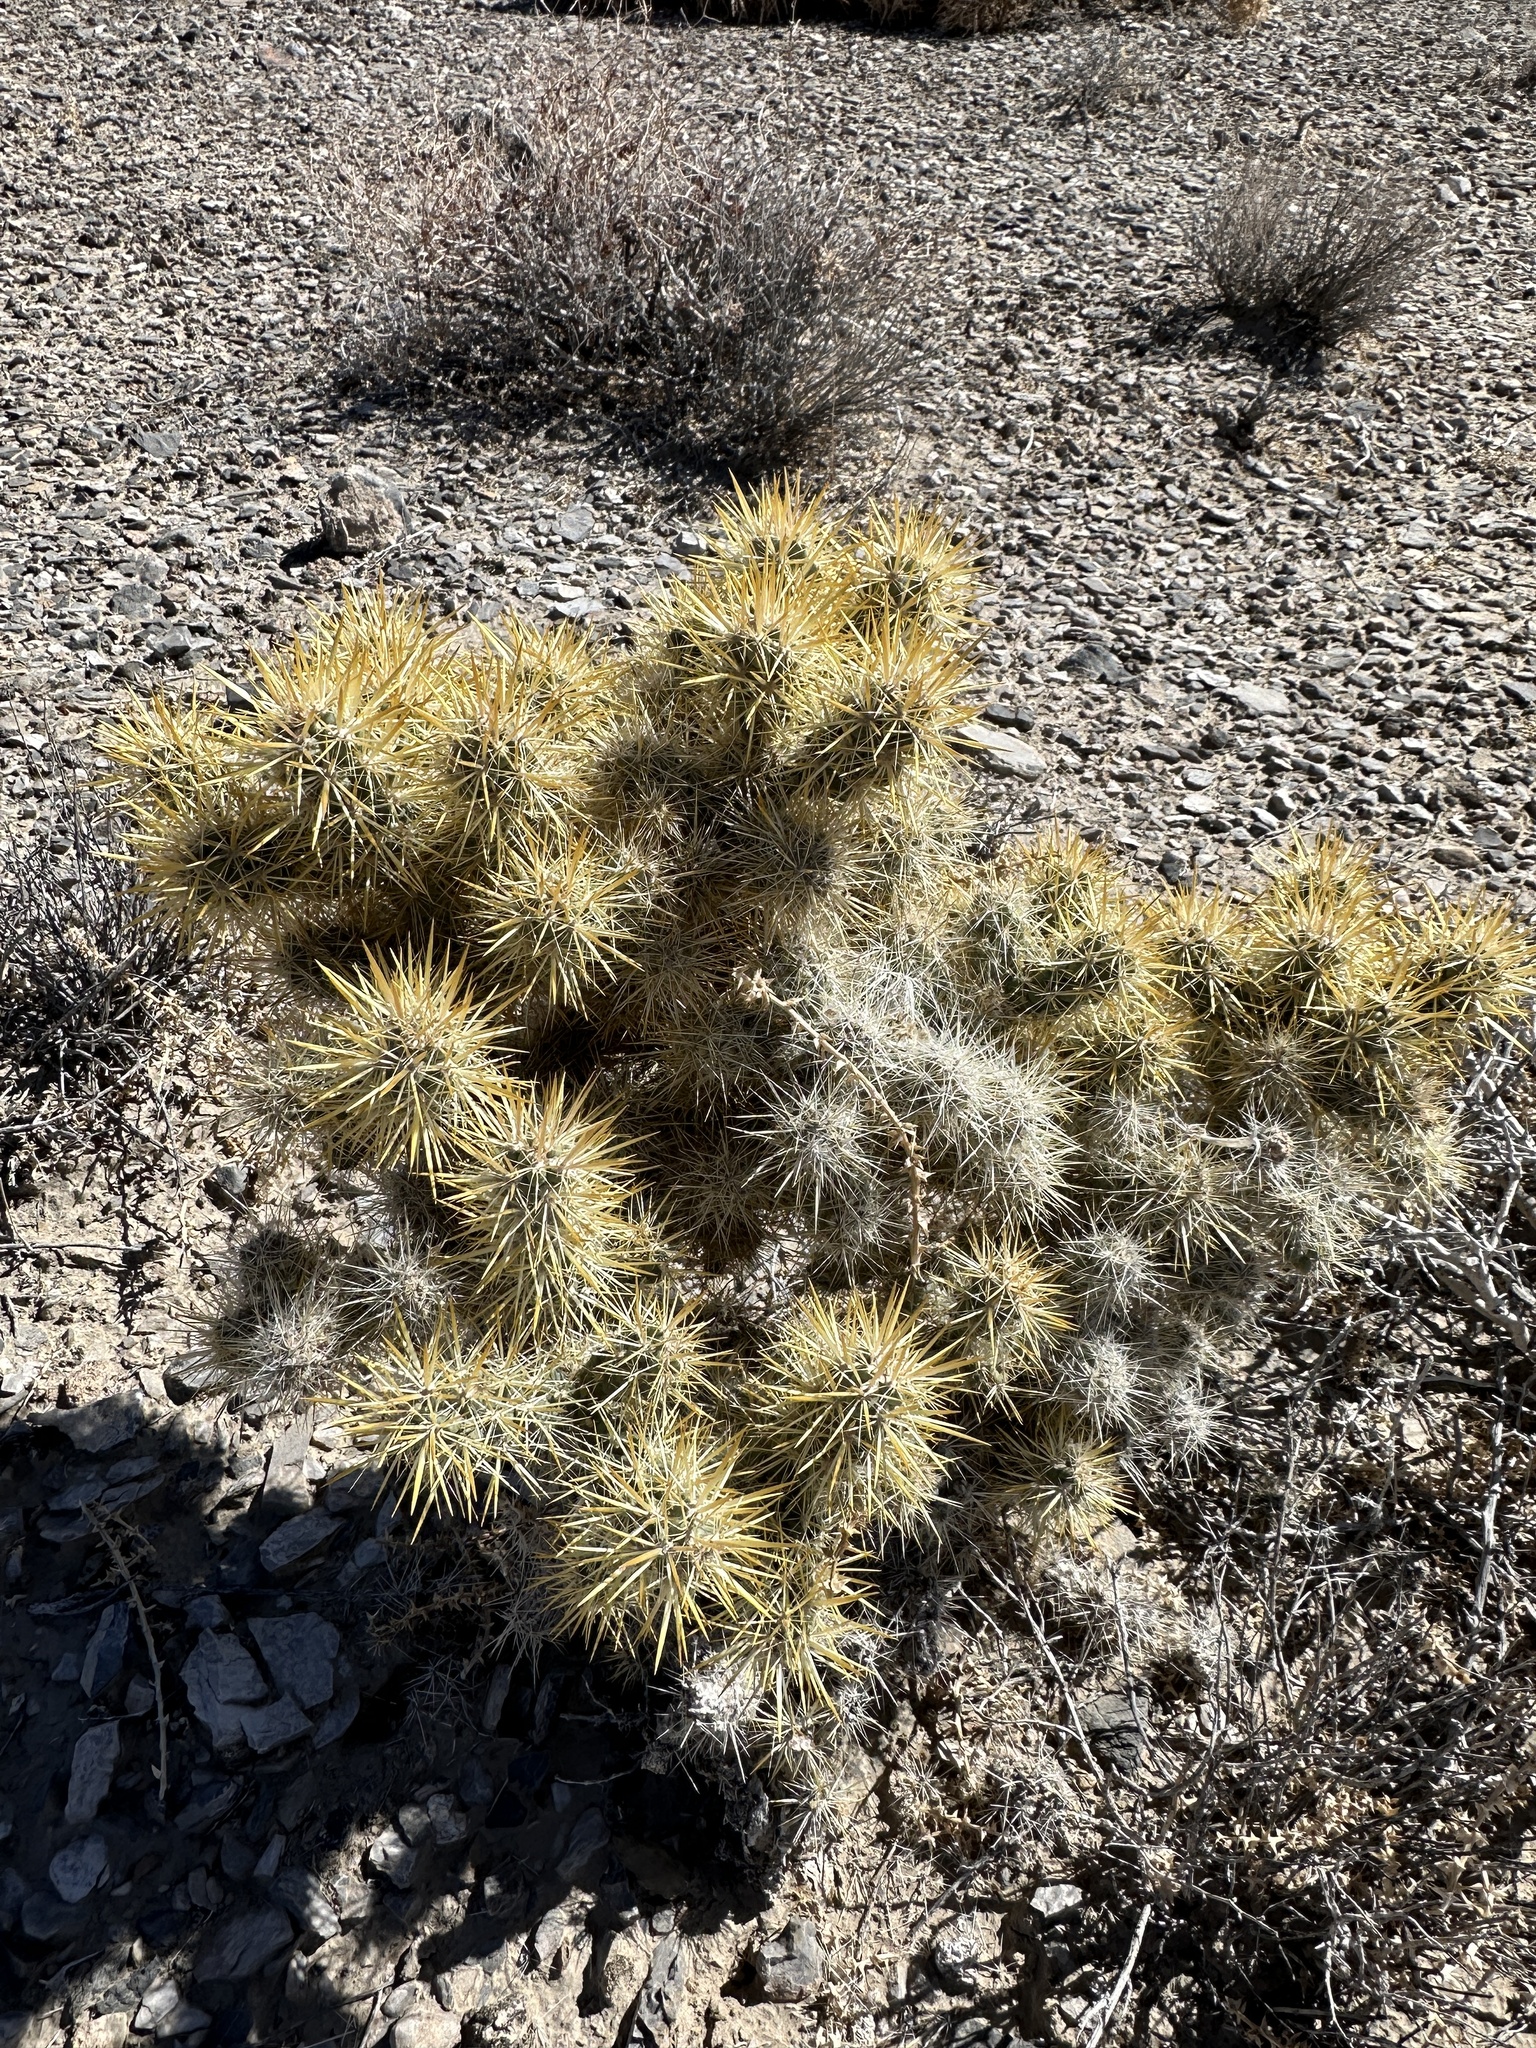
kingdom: Plantae
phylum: Tracheophyta
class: Magnoliopsida
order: Caryophyllales
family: Cactaceae
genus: Cylindropuntia
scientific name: Cylindropuntia echinocarpa
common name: Ground cholla
